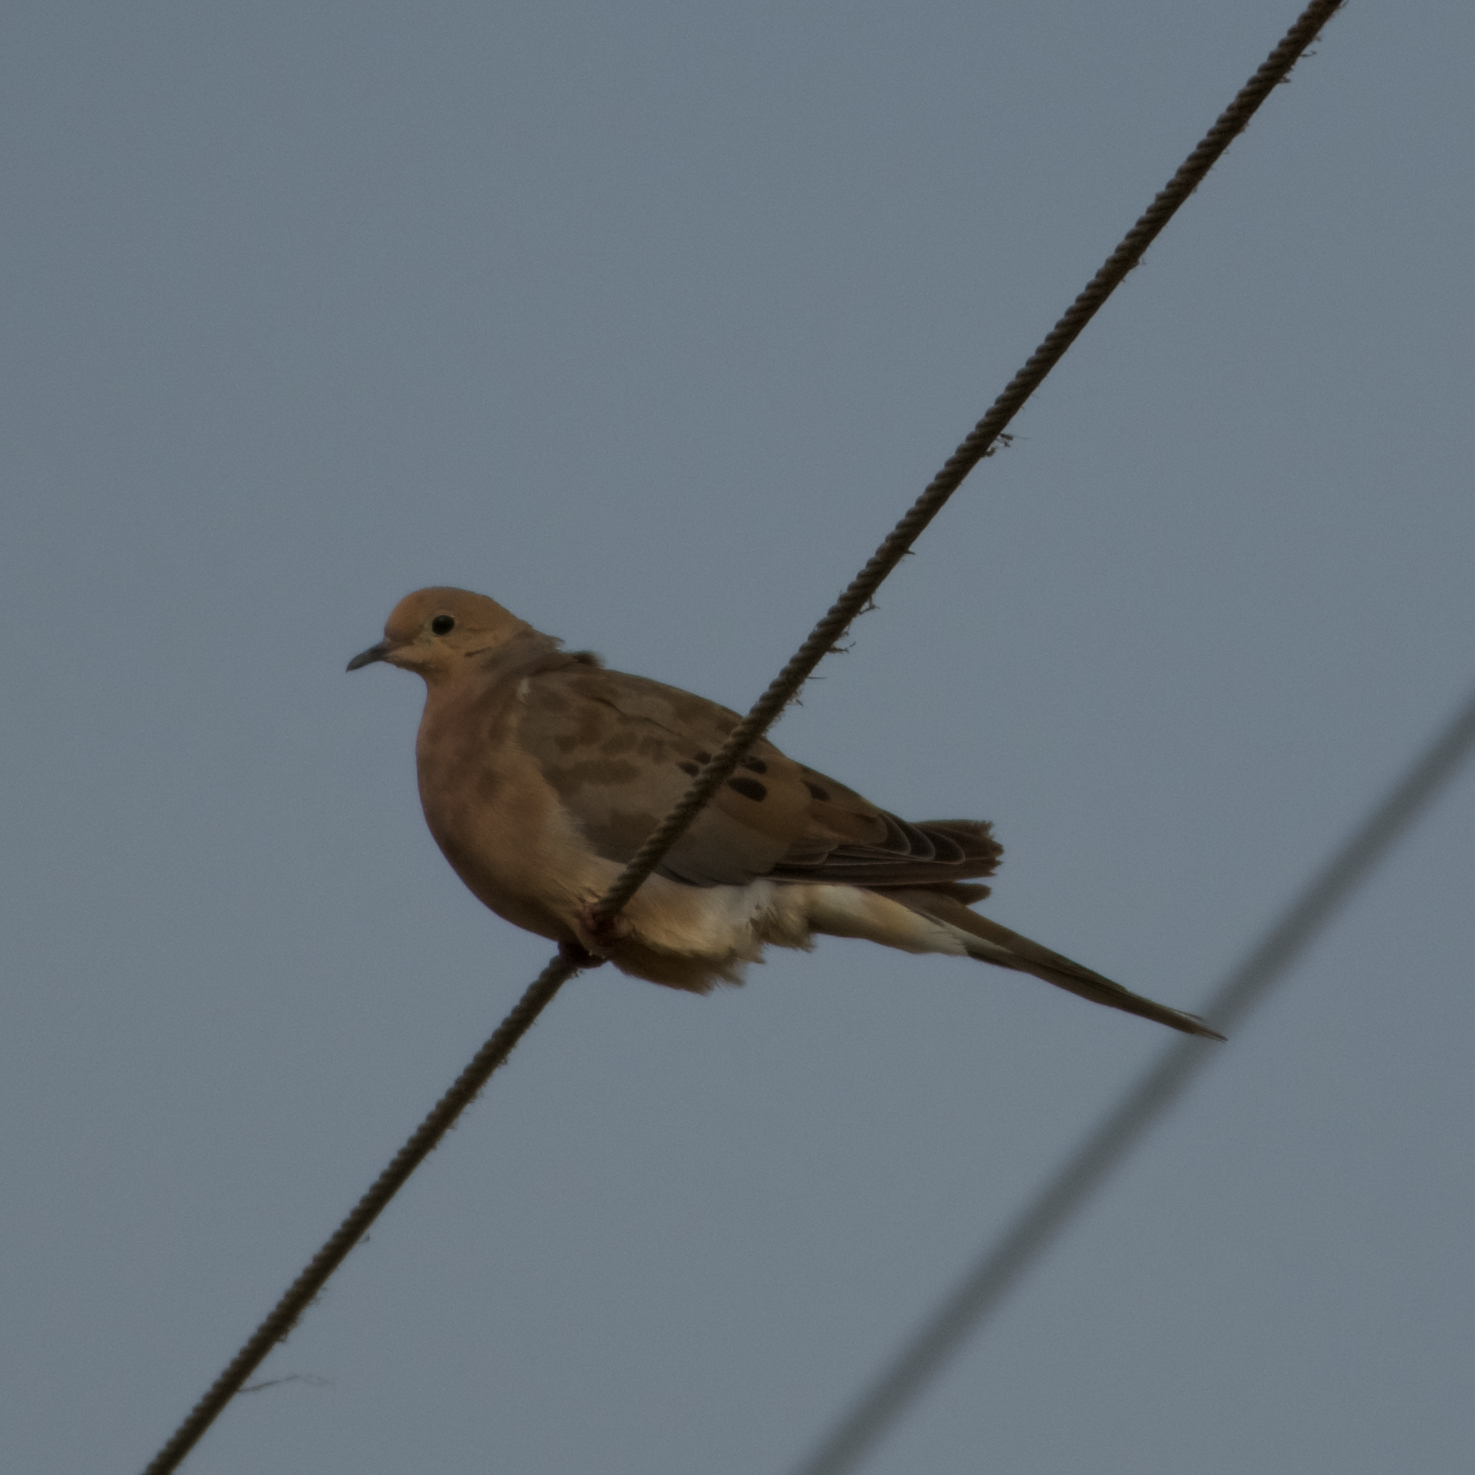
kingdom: Animalia
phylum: Chordata
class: Aves
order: Columbiformes
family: Columbidae
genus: Zenaida
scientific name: Zenaida macroura
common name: Mourning dove
